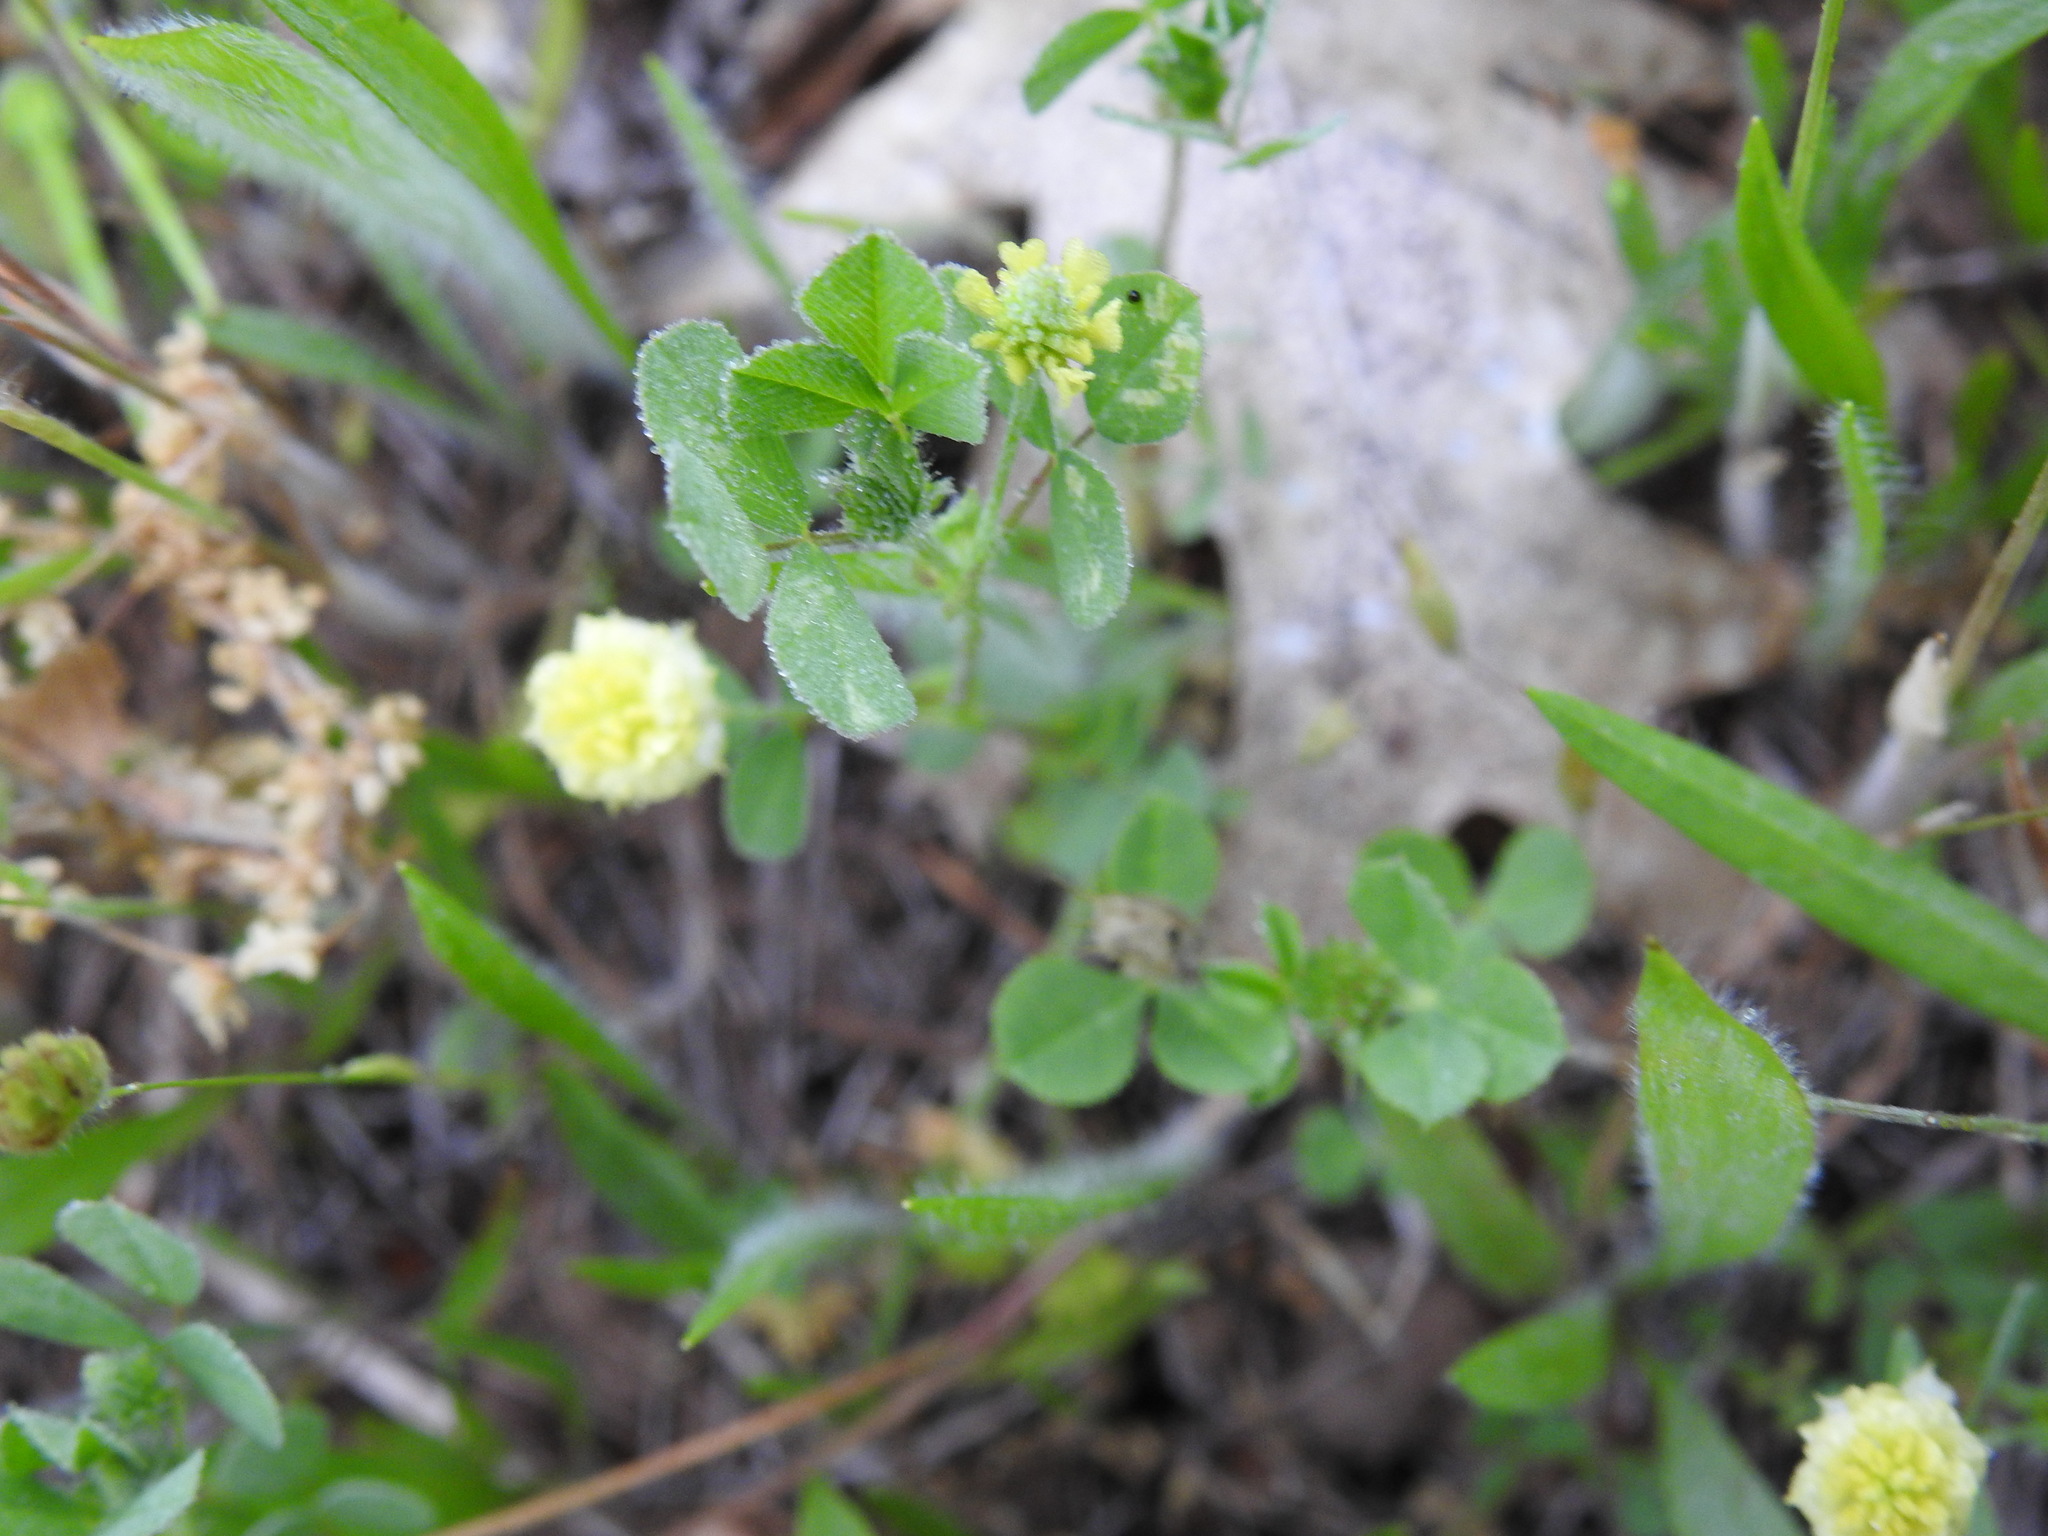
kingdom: Plantae
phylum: Tracheophyta
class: Magnoliopsida
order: Fabales
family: Fabaceae
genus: Trifolium
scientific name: Trifolium campestre
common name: Field clover
